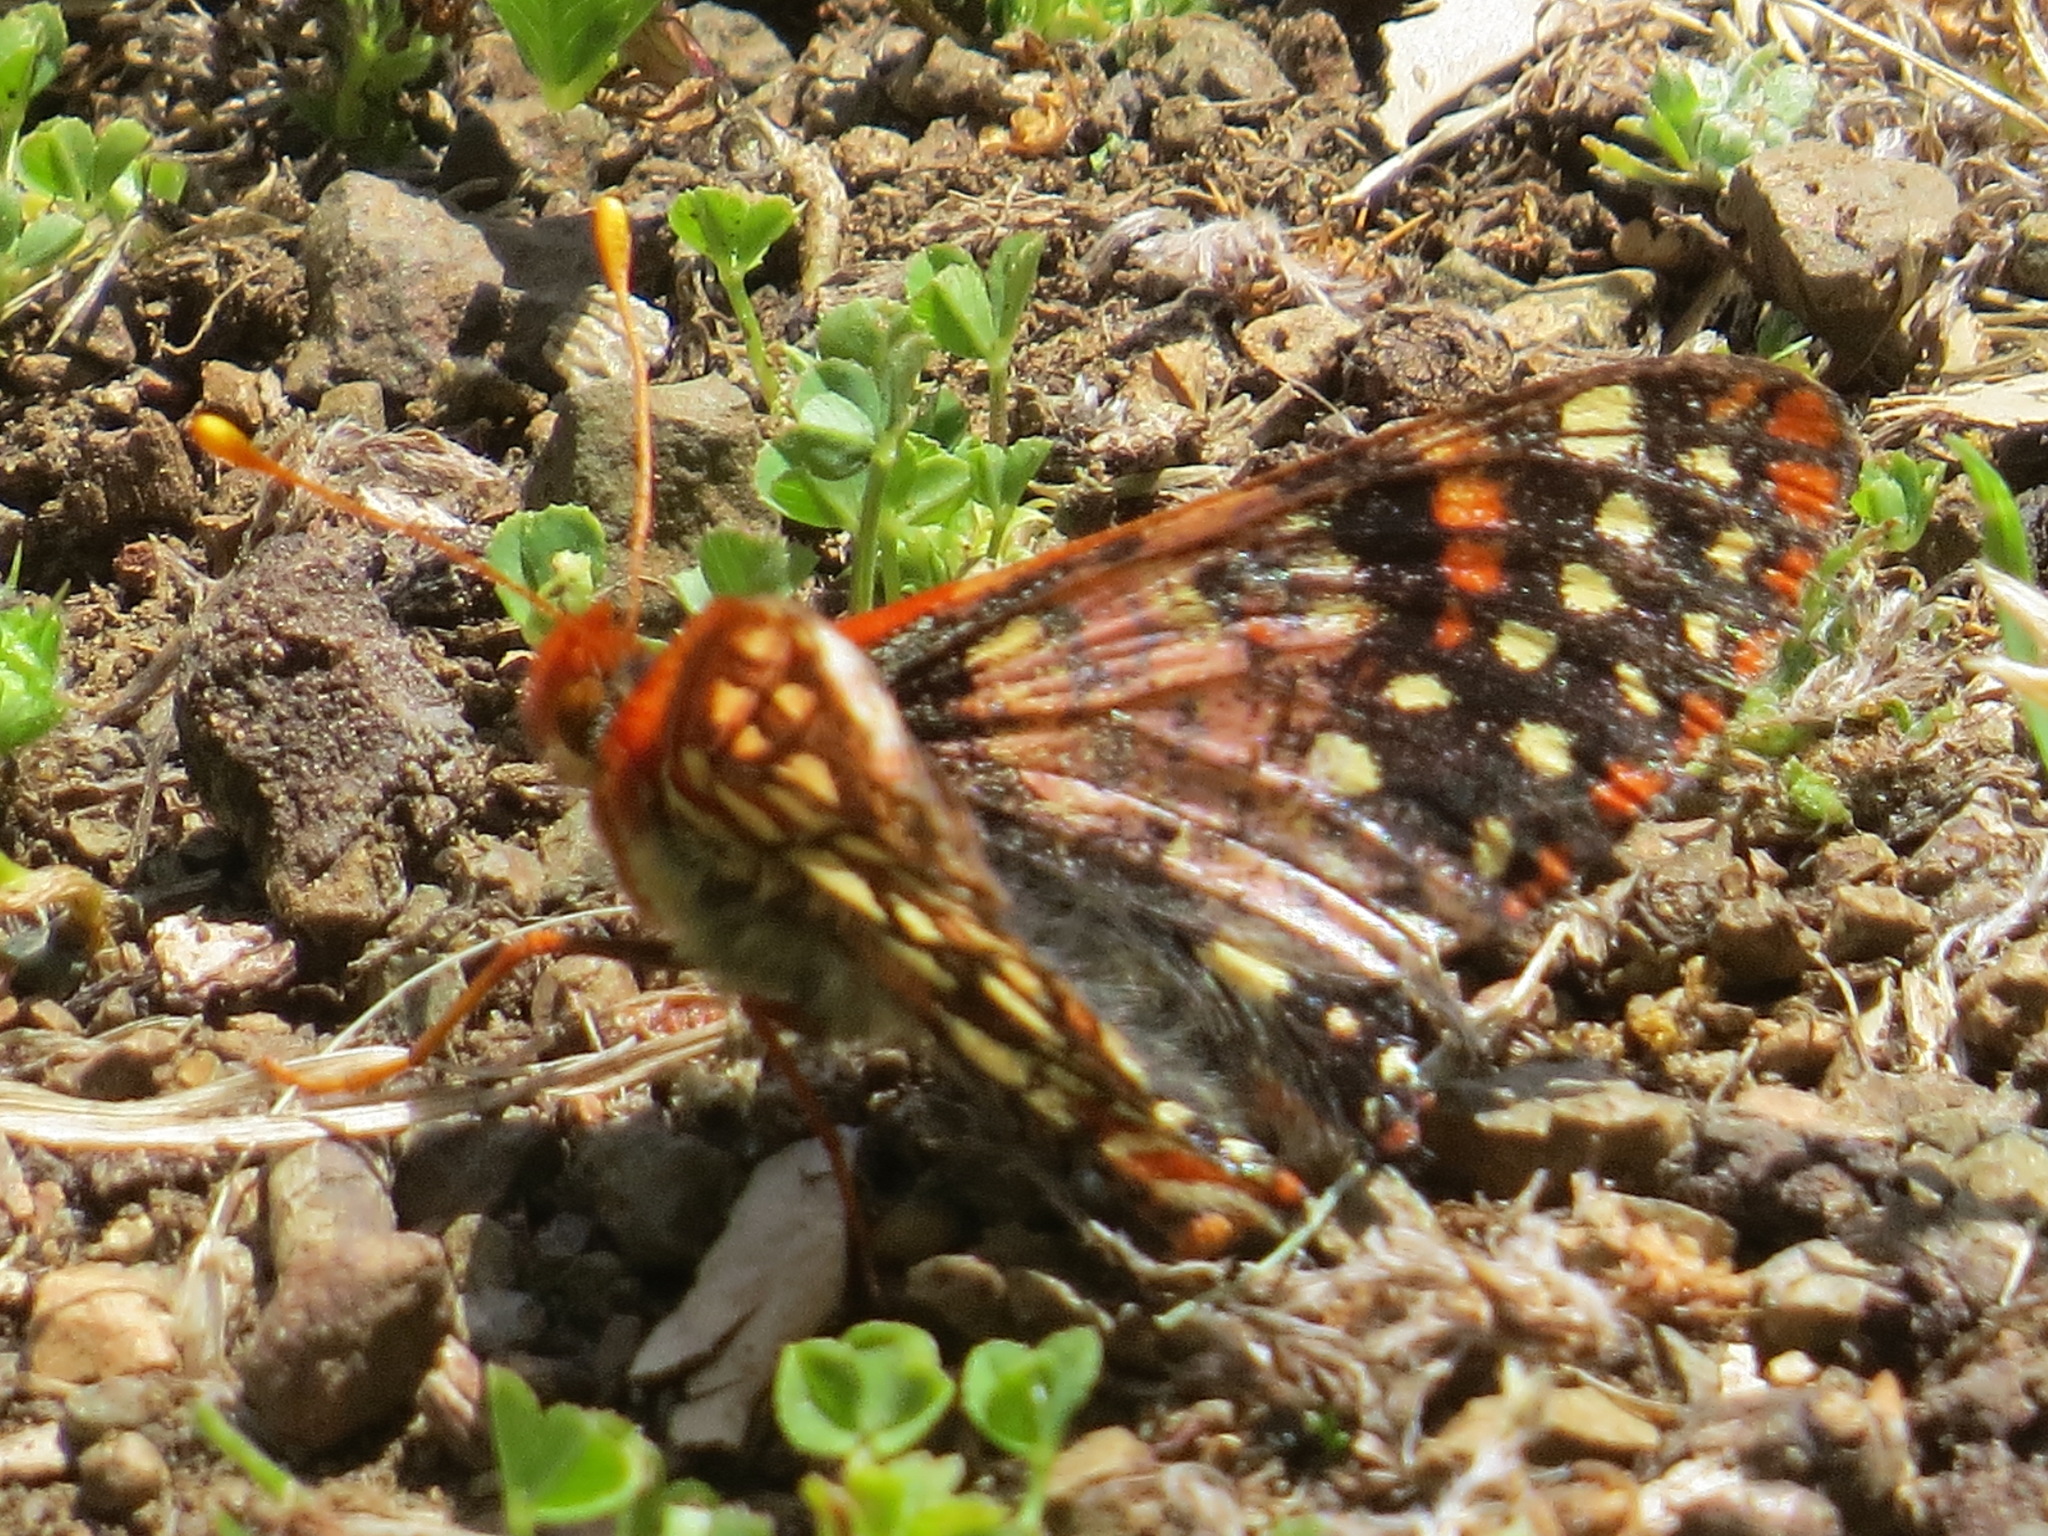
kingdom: Animalia
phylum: Arthropoda
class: Insecta
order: Lepidoptera
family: Nymphalidae
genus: Occidryas
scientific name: Occidryas chalcedona
